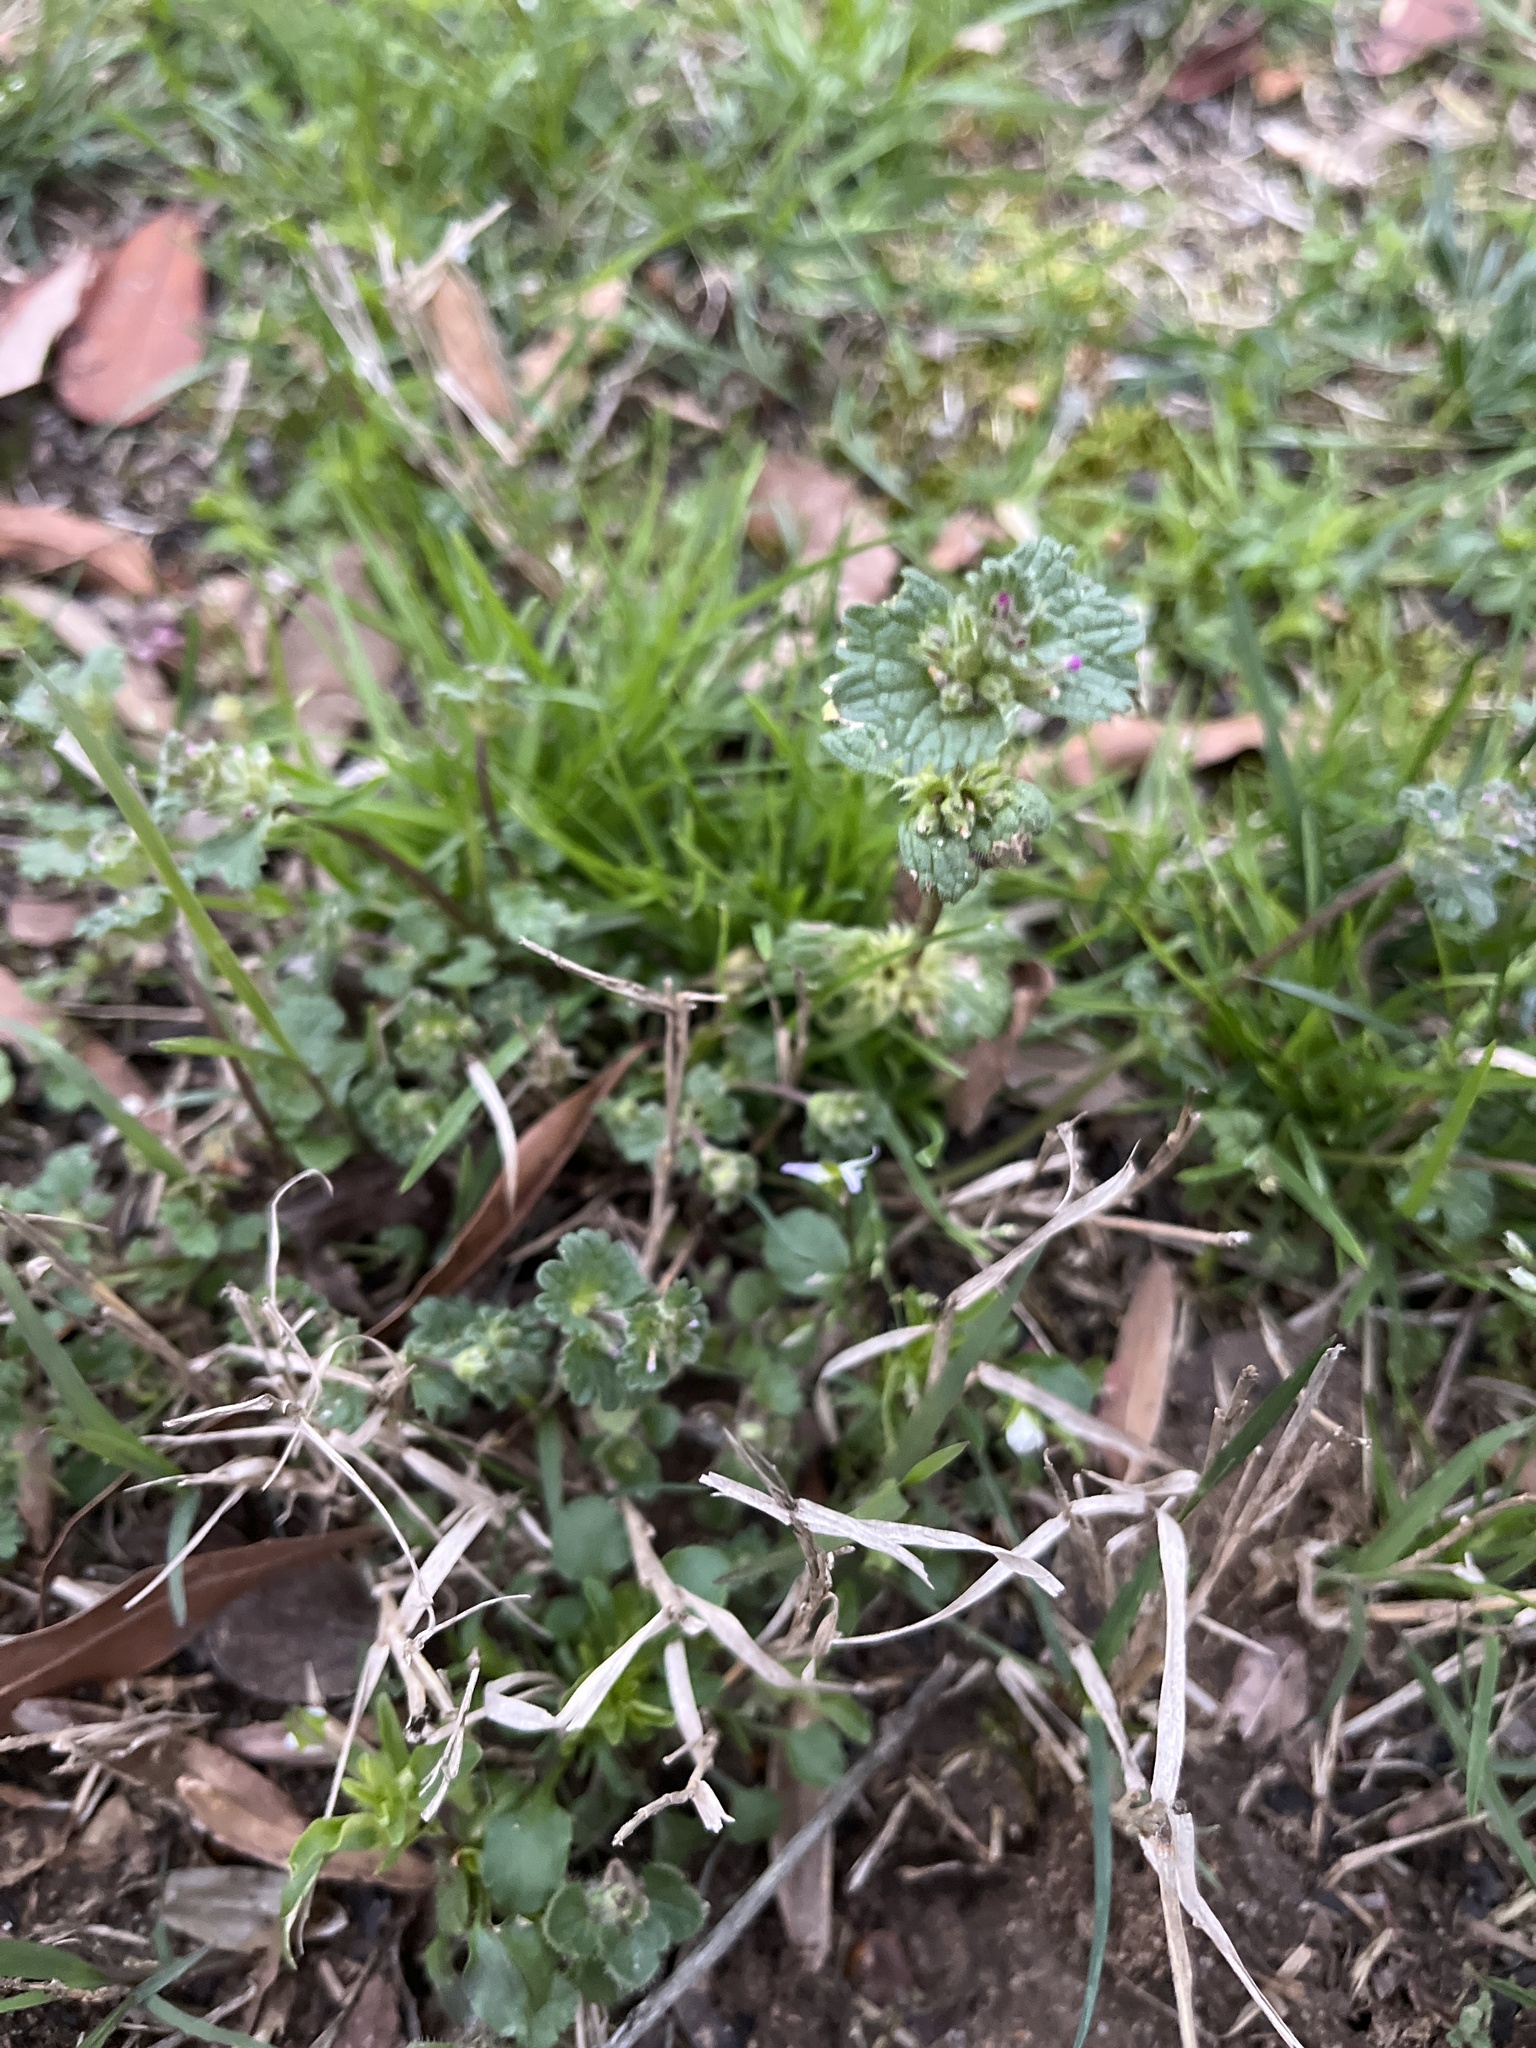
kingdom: Plantae
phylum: Tracheophyta
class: Magnoliopsida
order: Lamiales
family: Lamiaceae
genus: Lamium
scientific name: Lamium amplexicaule
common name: Henbit dead-nettle
